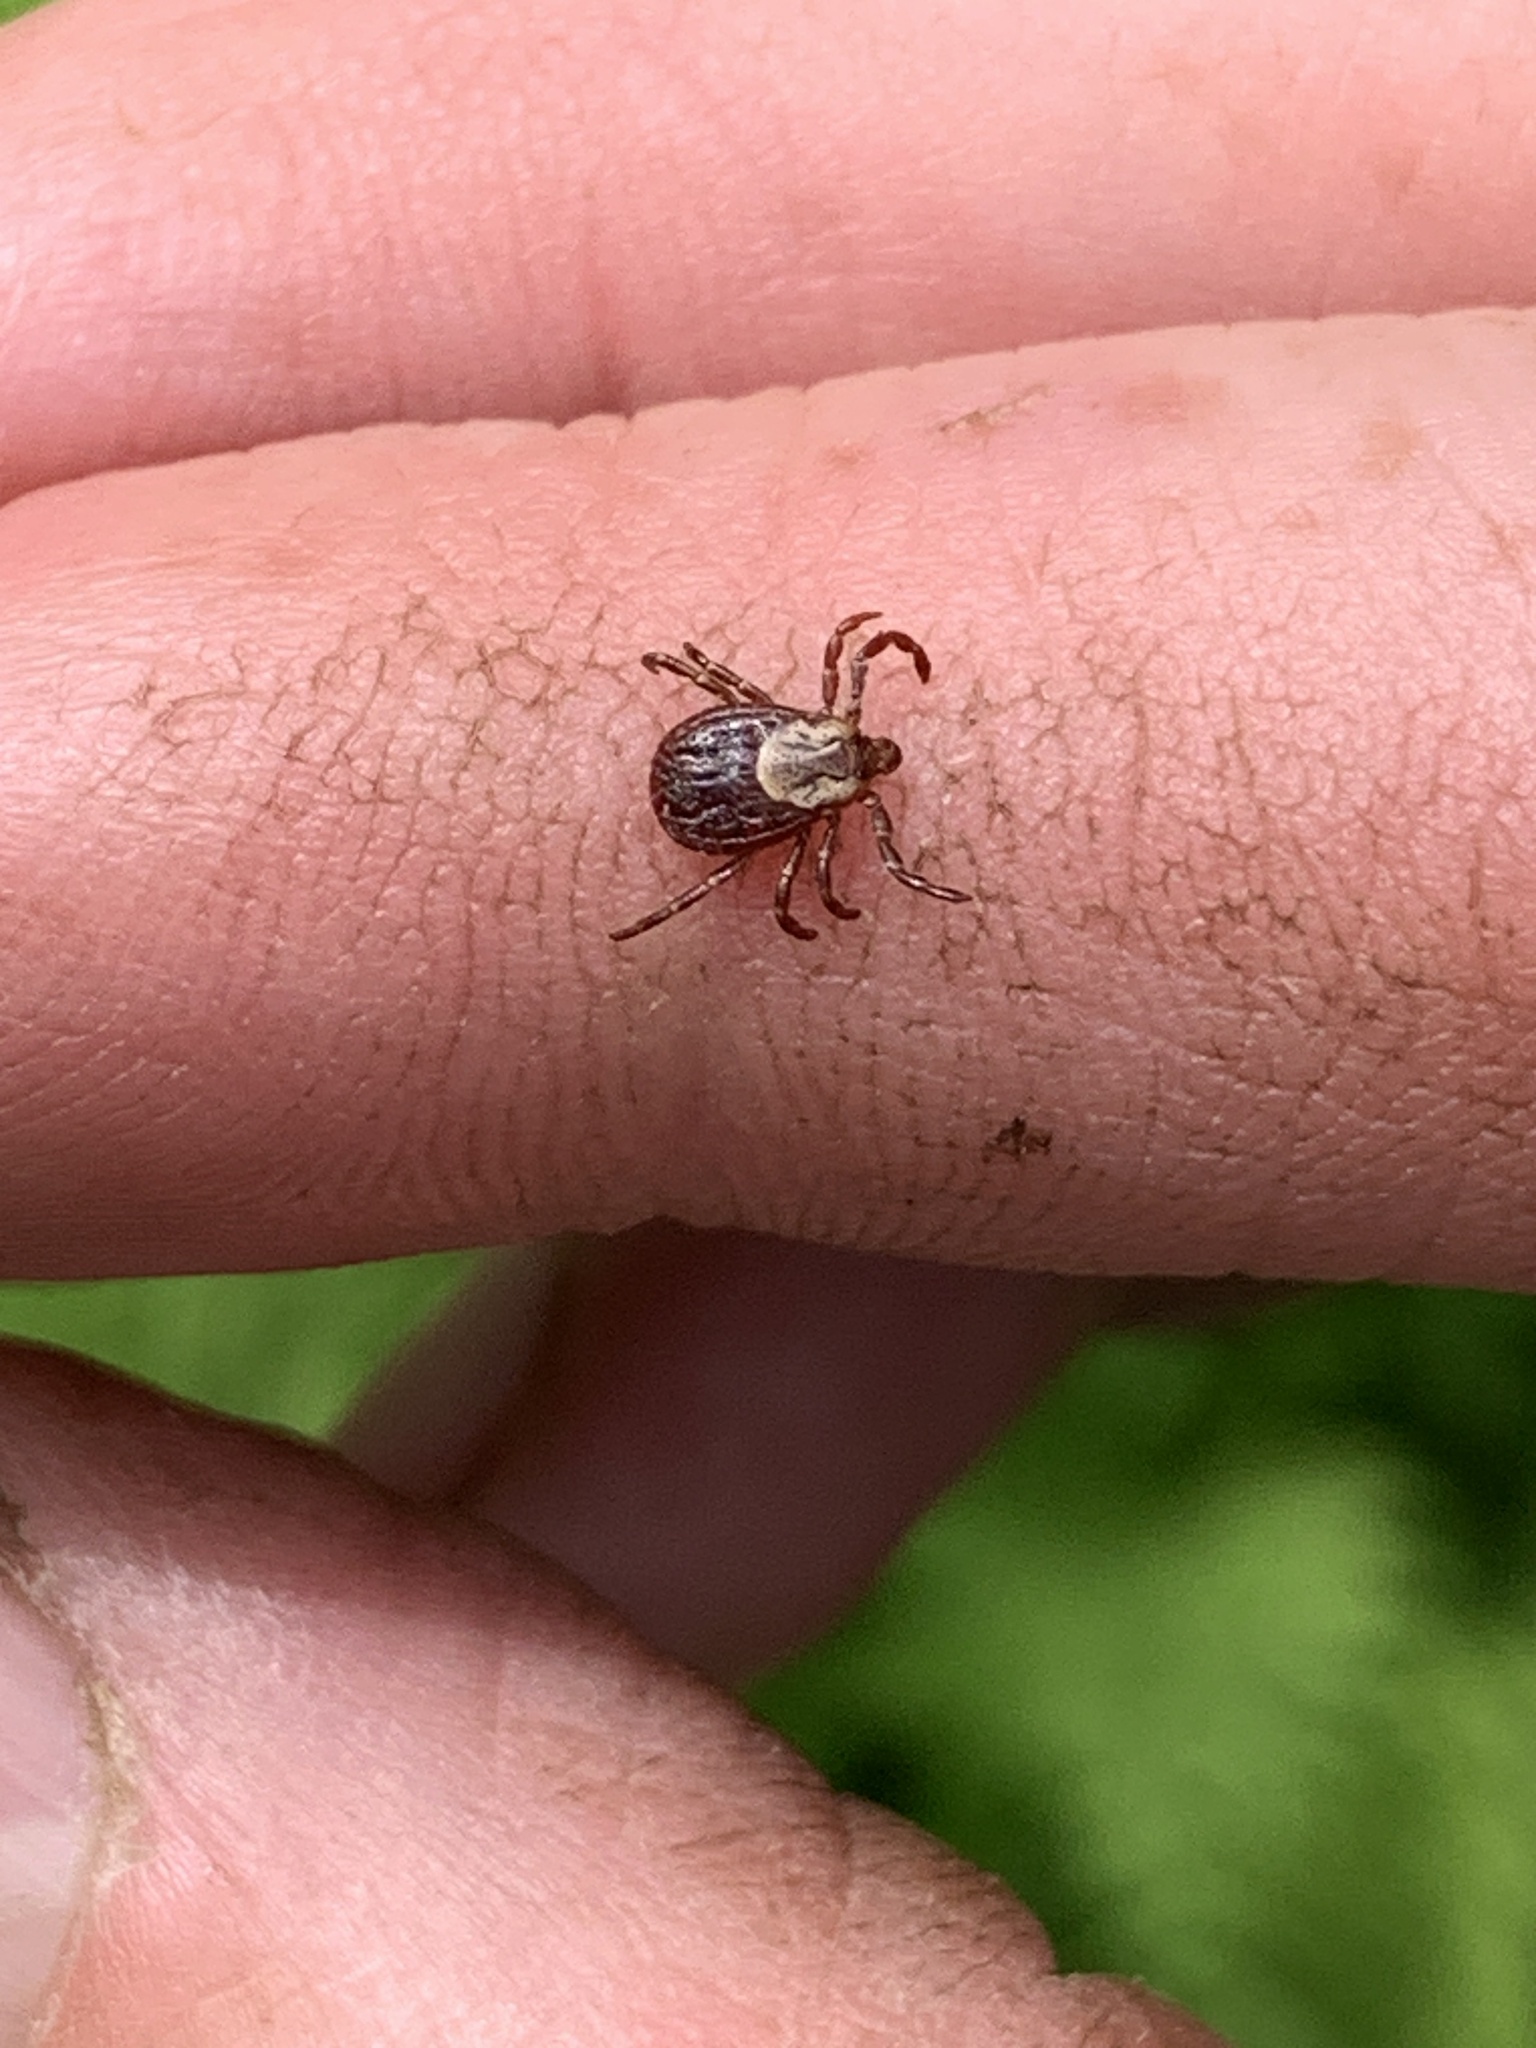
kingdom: Animalia
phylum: Arthropoda
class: Arachnida
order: Ixodida
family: Ixodidae
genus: Dermacentor
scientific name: Dermacentor variabilis
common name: American dog tick
